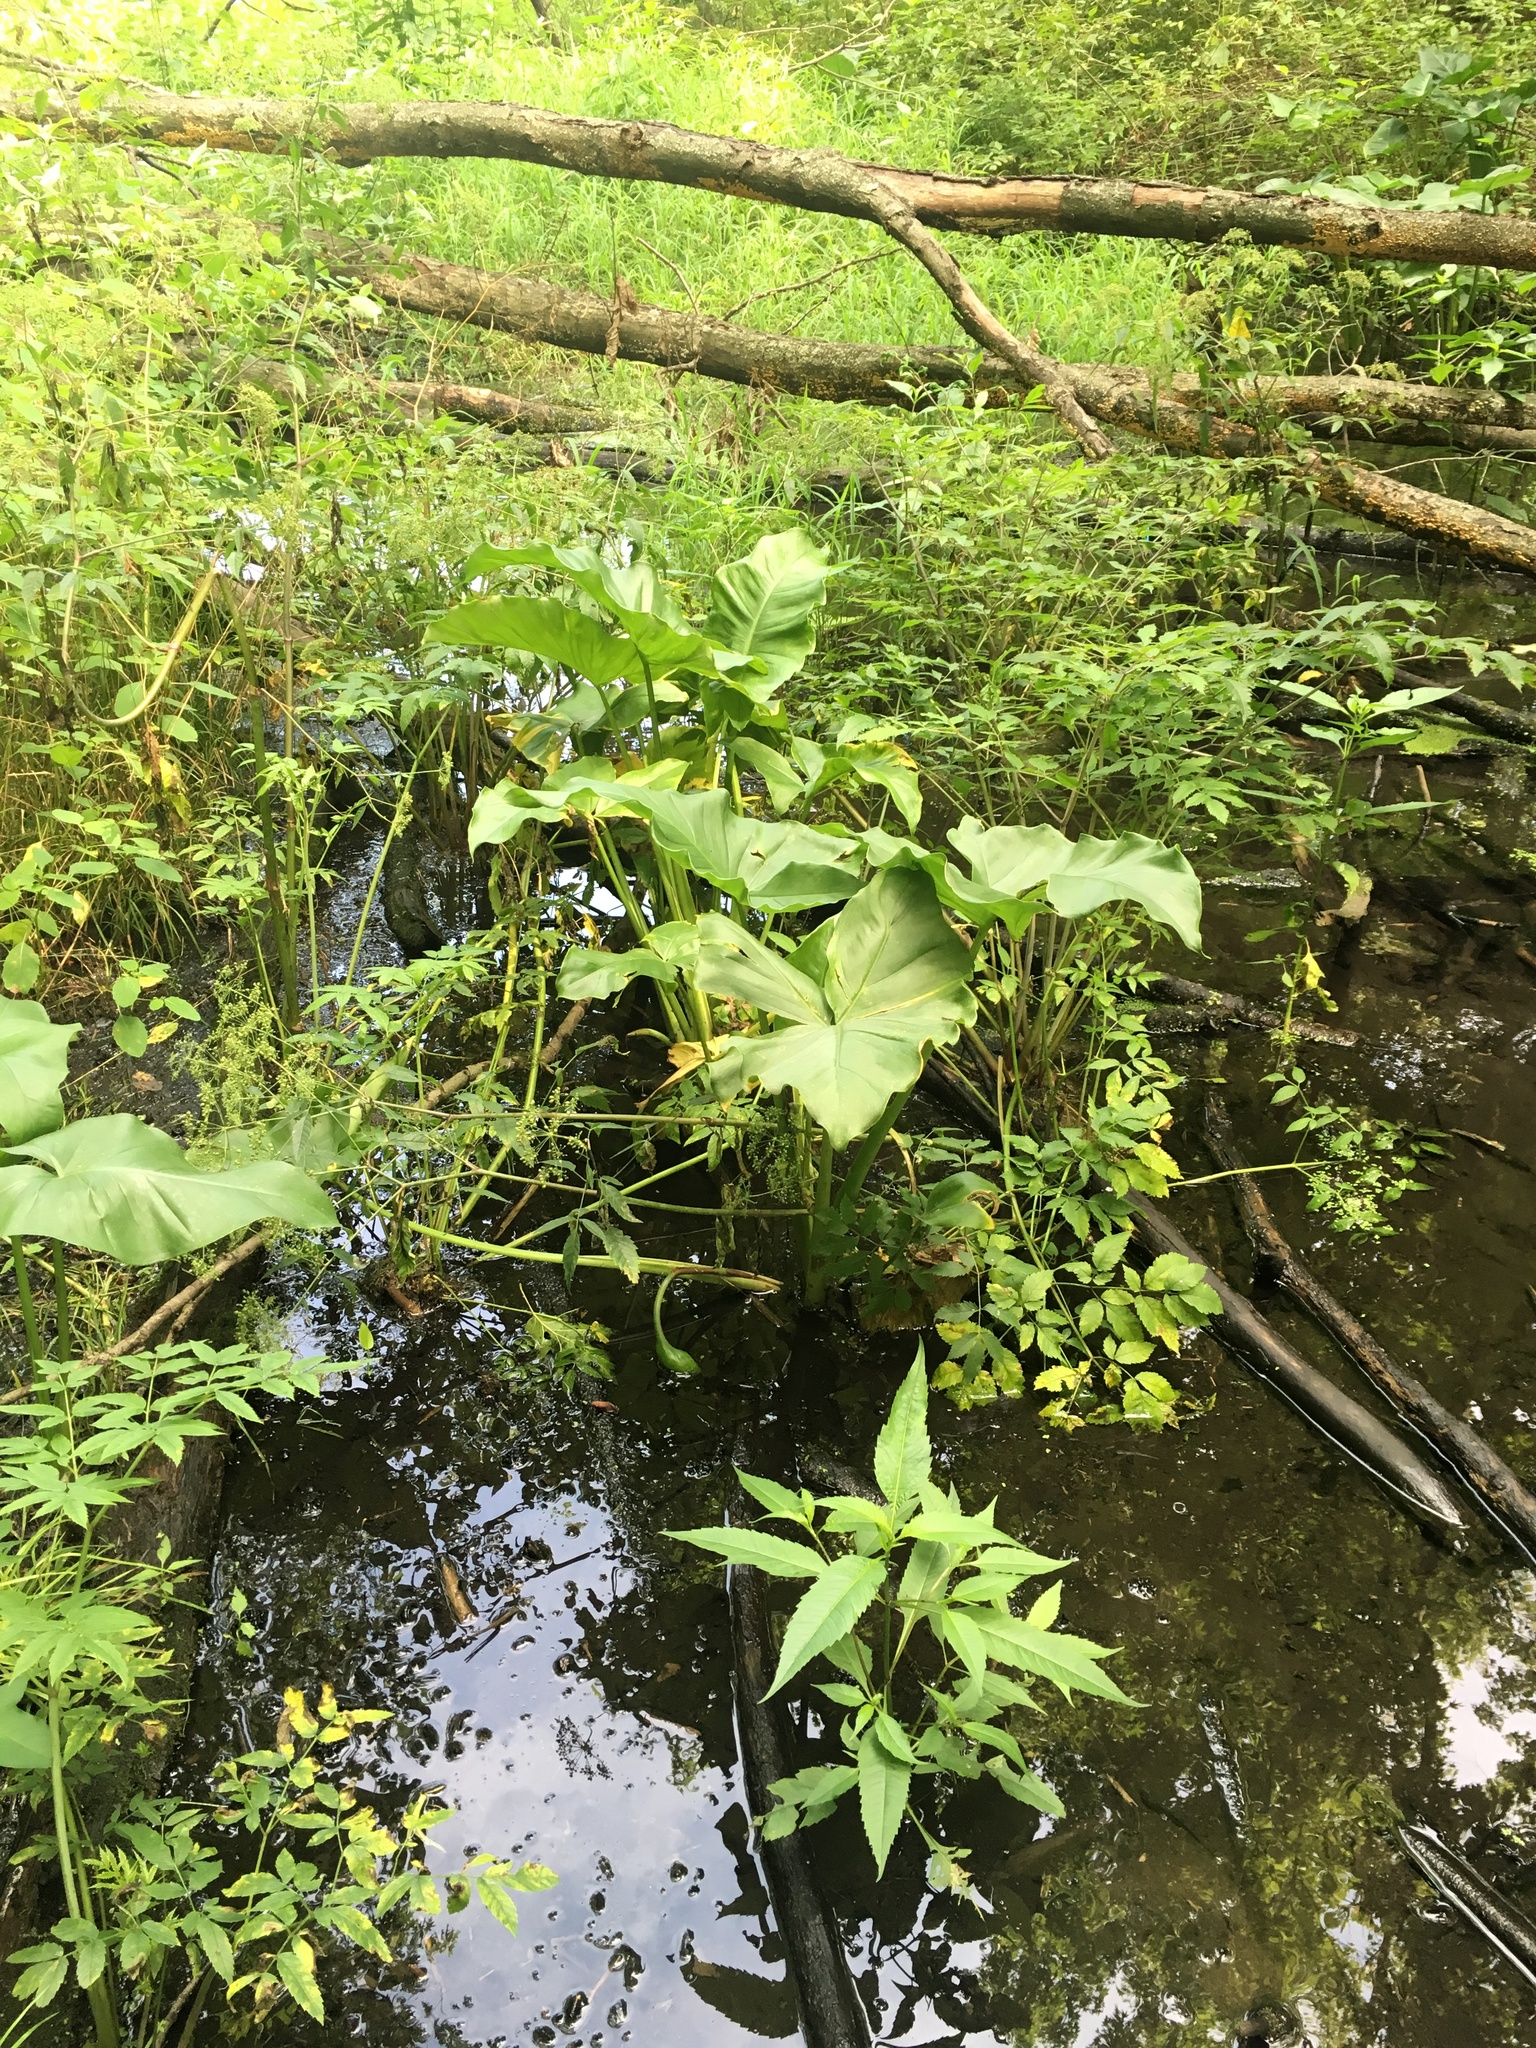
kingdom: Plantae
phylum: Tracheophyta
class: Liliopsida
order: Alismatales
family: Araceae
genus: Peltandra
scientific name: Peltandra virginica
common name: Arrow arum
